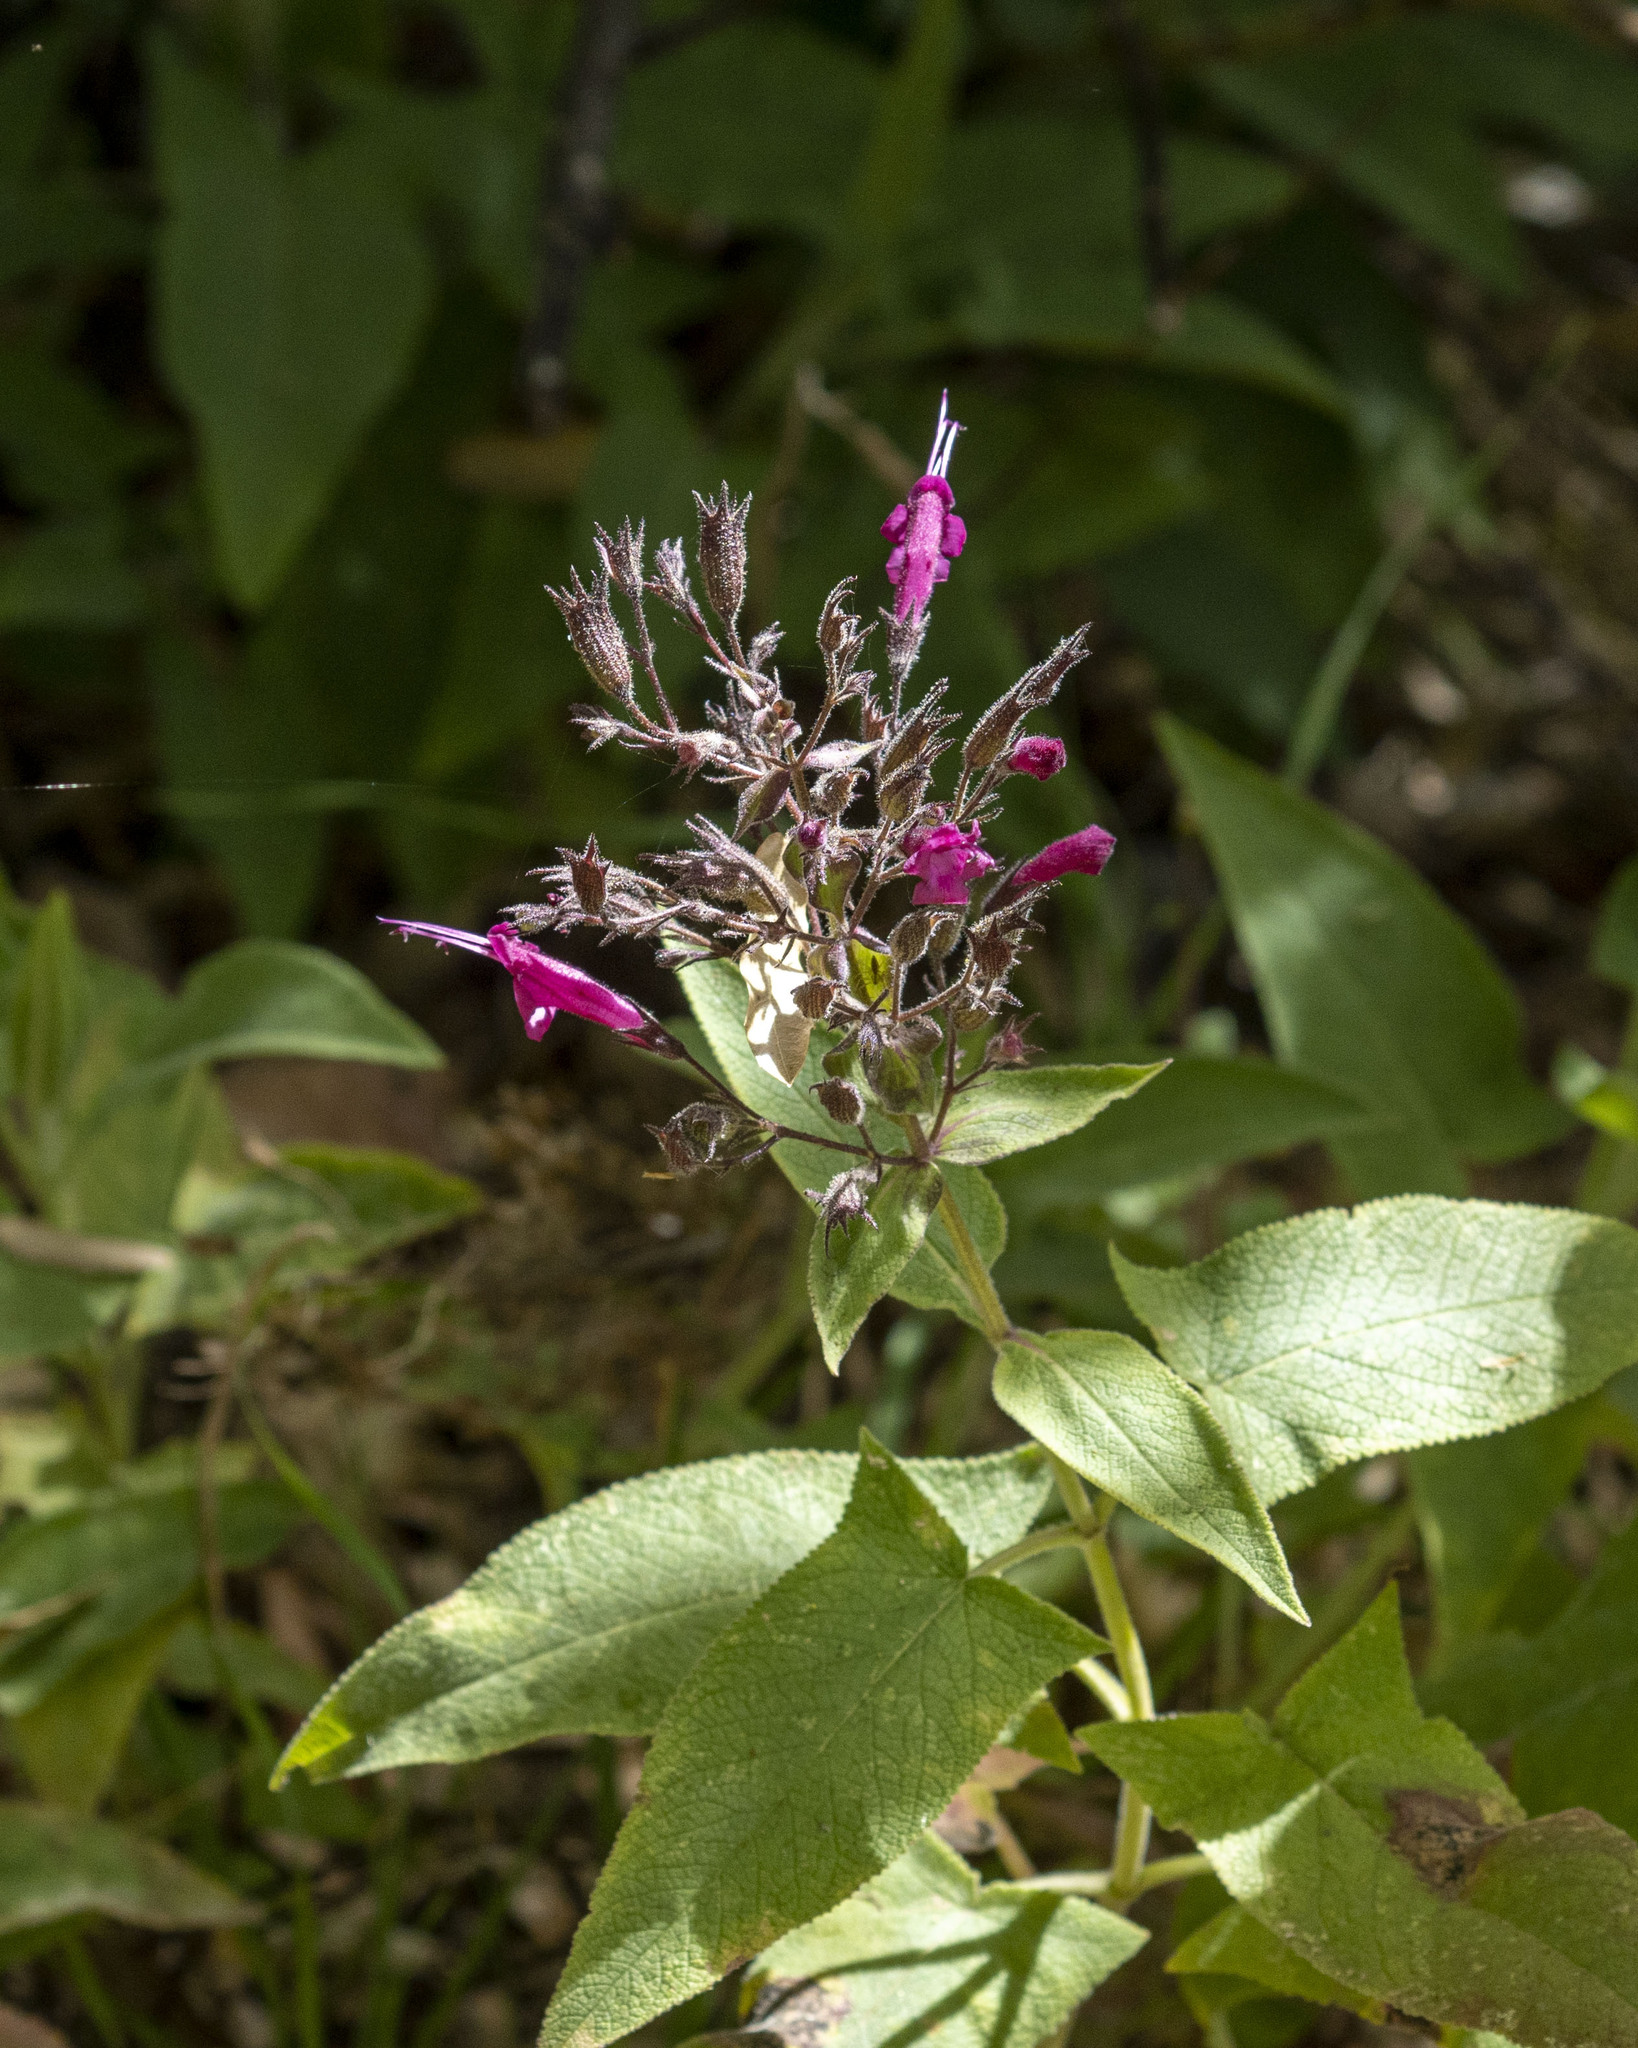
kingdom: Plantae
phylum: Tracheophyta
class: Magnoliopsida
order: Lamiales
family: Lamiaceae
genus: Lepechinia
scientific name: Lepechinia hastata
